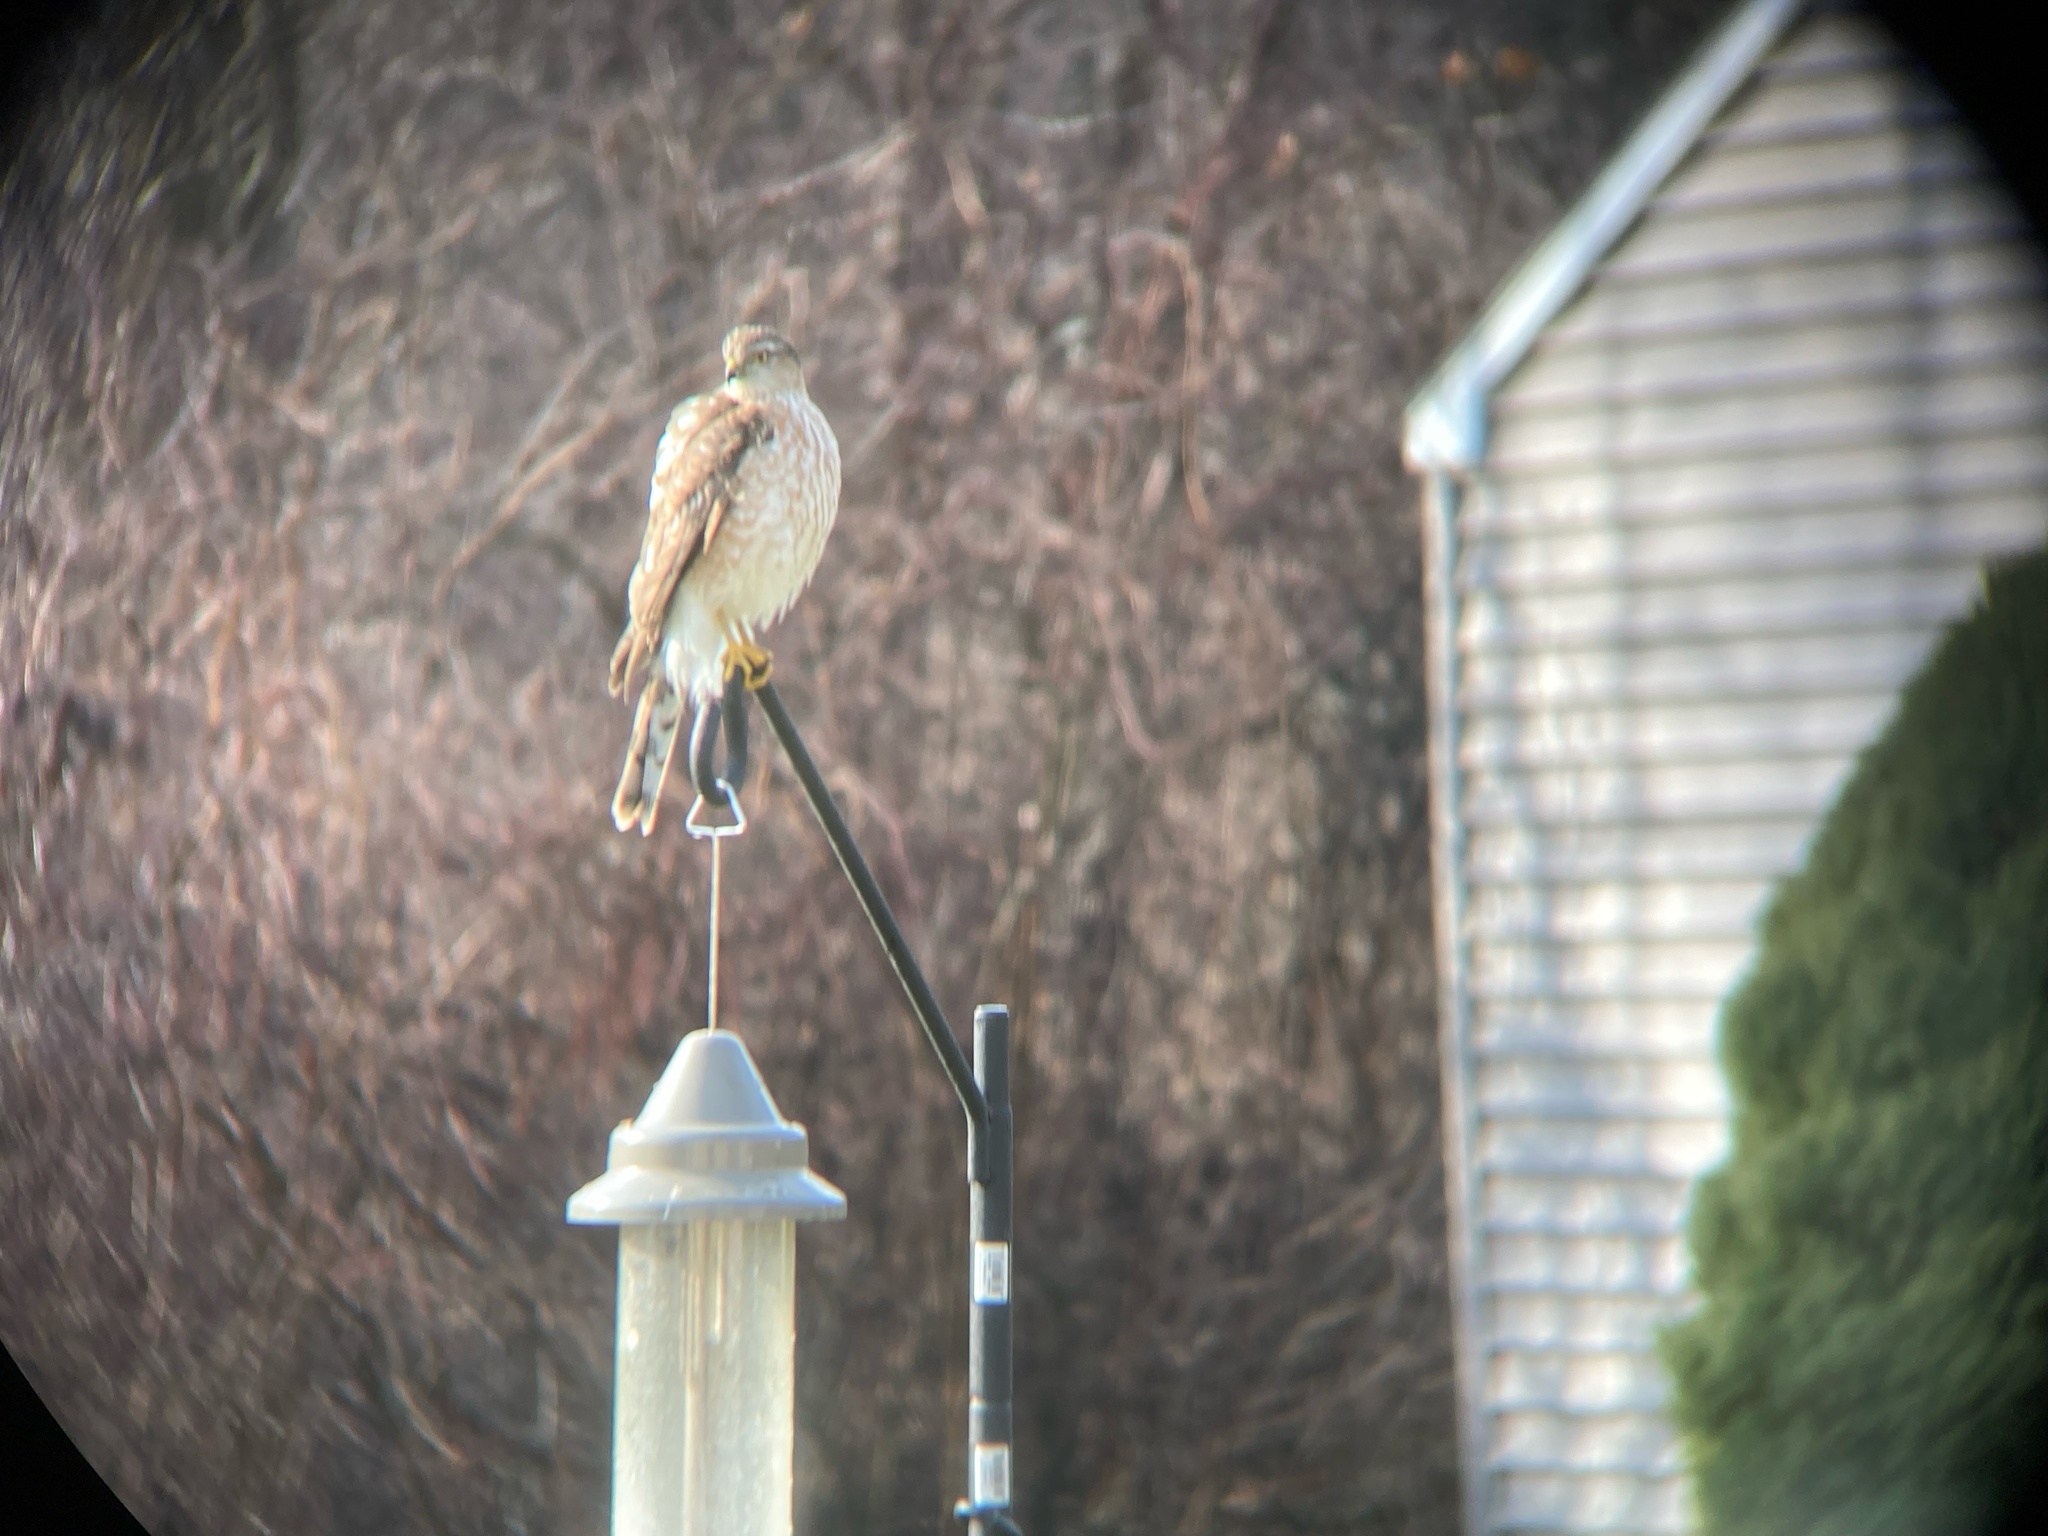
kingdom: Animalia
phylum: Chordata
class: Aves
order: Accipitriformes
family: Accipitridae
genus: Accipiter
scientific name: Accipiter striatus
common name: Sharp-shinned hawk
